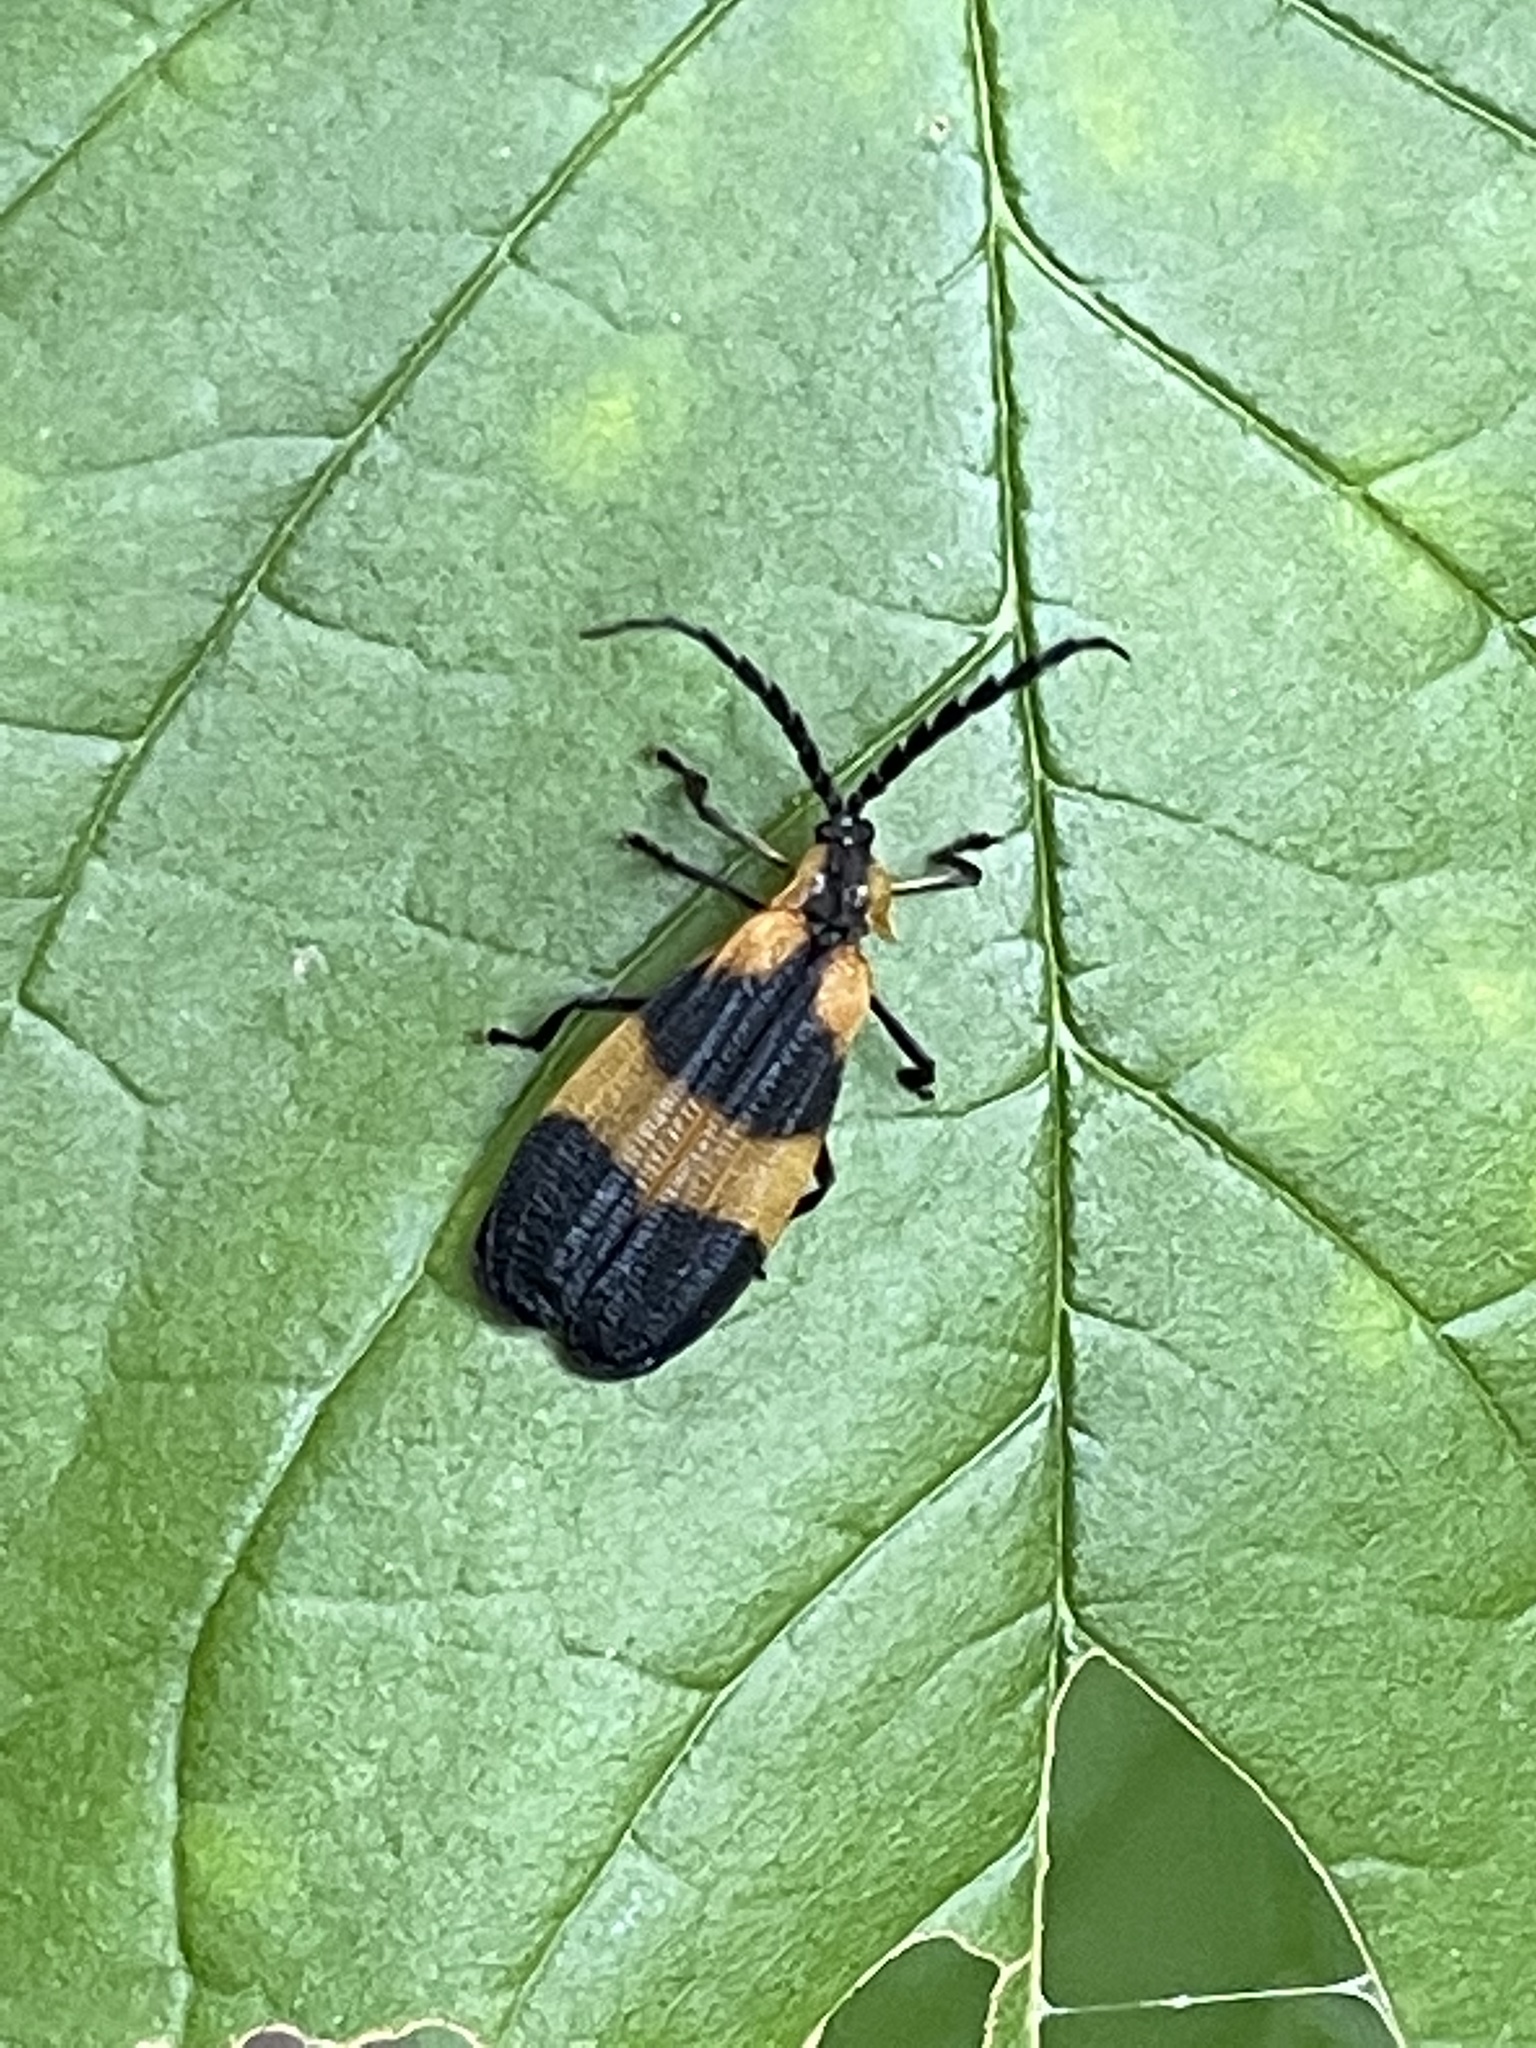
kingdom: Animalia
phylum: Arthropoda
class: Insecta
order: Coleoptera
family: Lycidae
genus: Calopteron
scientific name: Calopteron reticulatum
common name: Banded net-winged beetle
